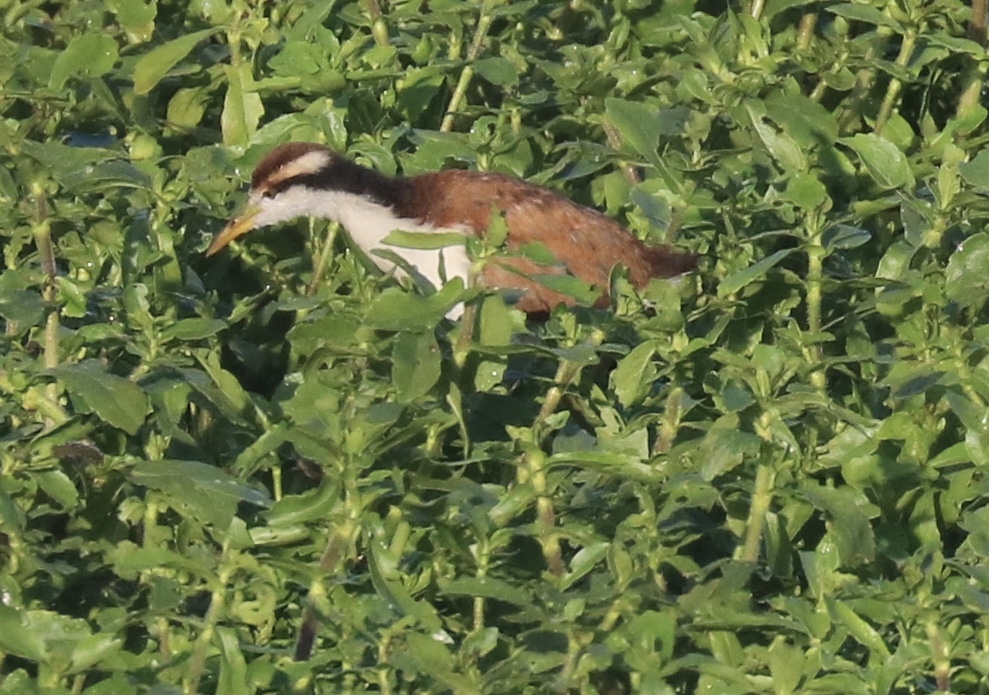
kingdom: Animalia
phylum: Chordata
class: Aves
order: Charadriiformes
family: Jacanidae
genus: Jacana
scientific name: Jacana jacana
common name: Wattled jacana
